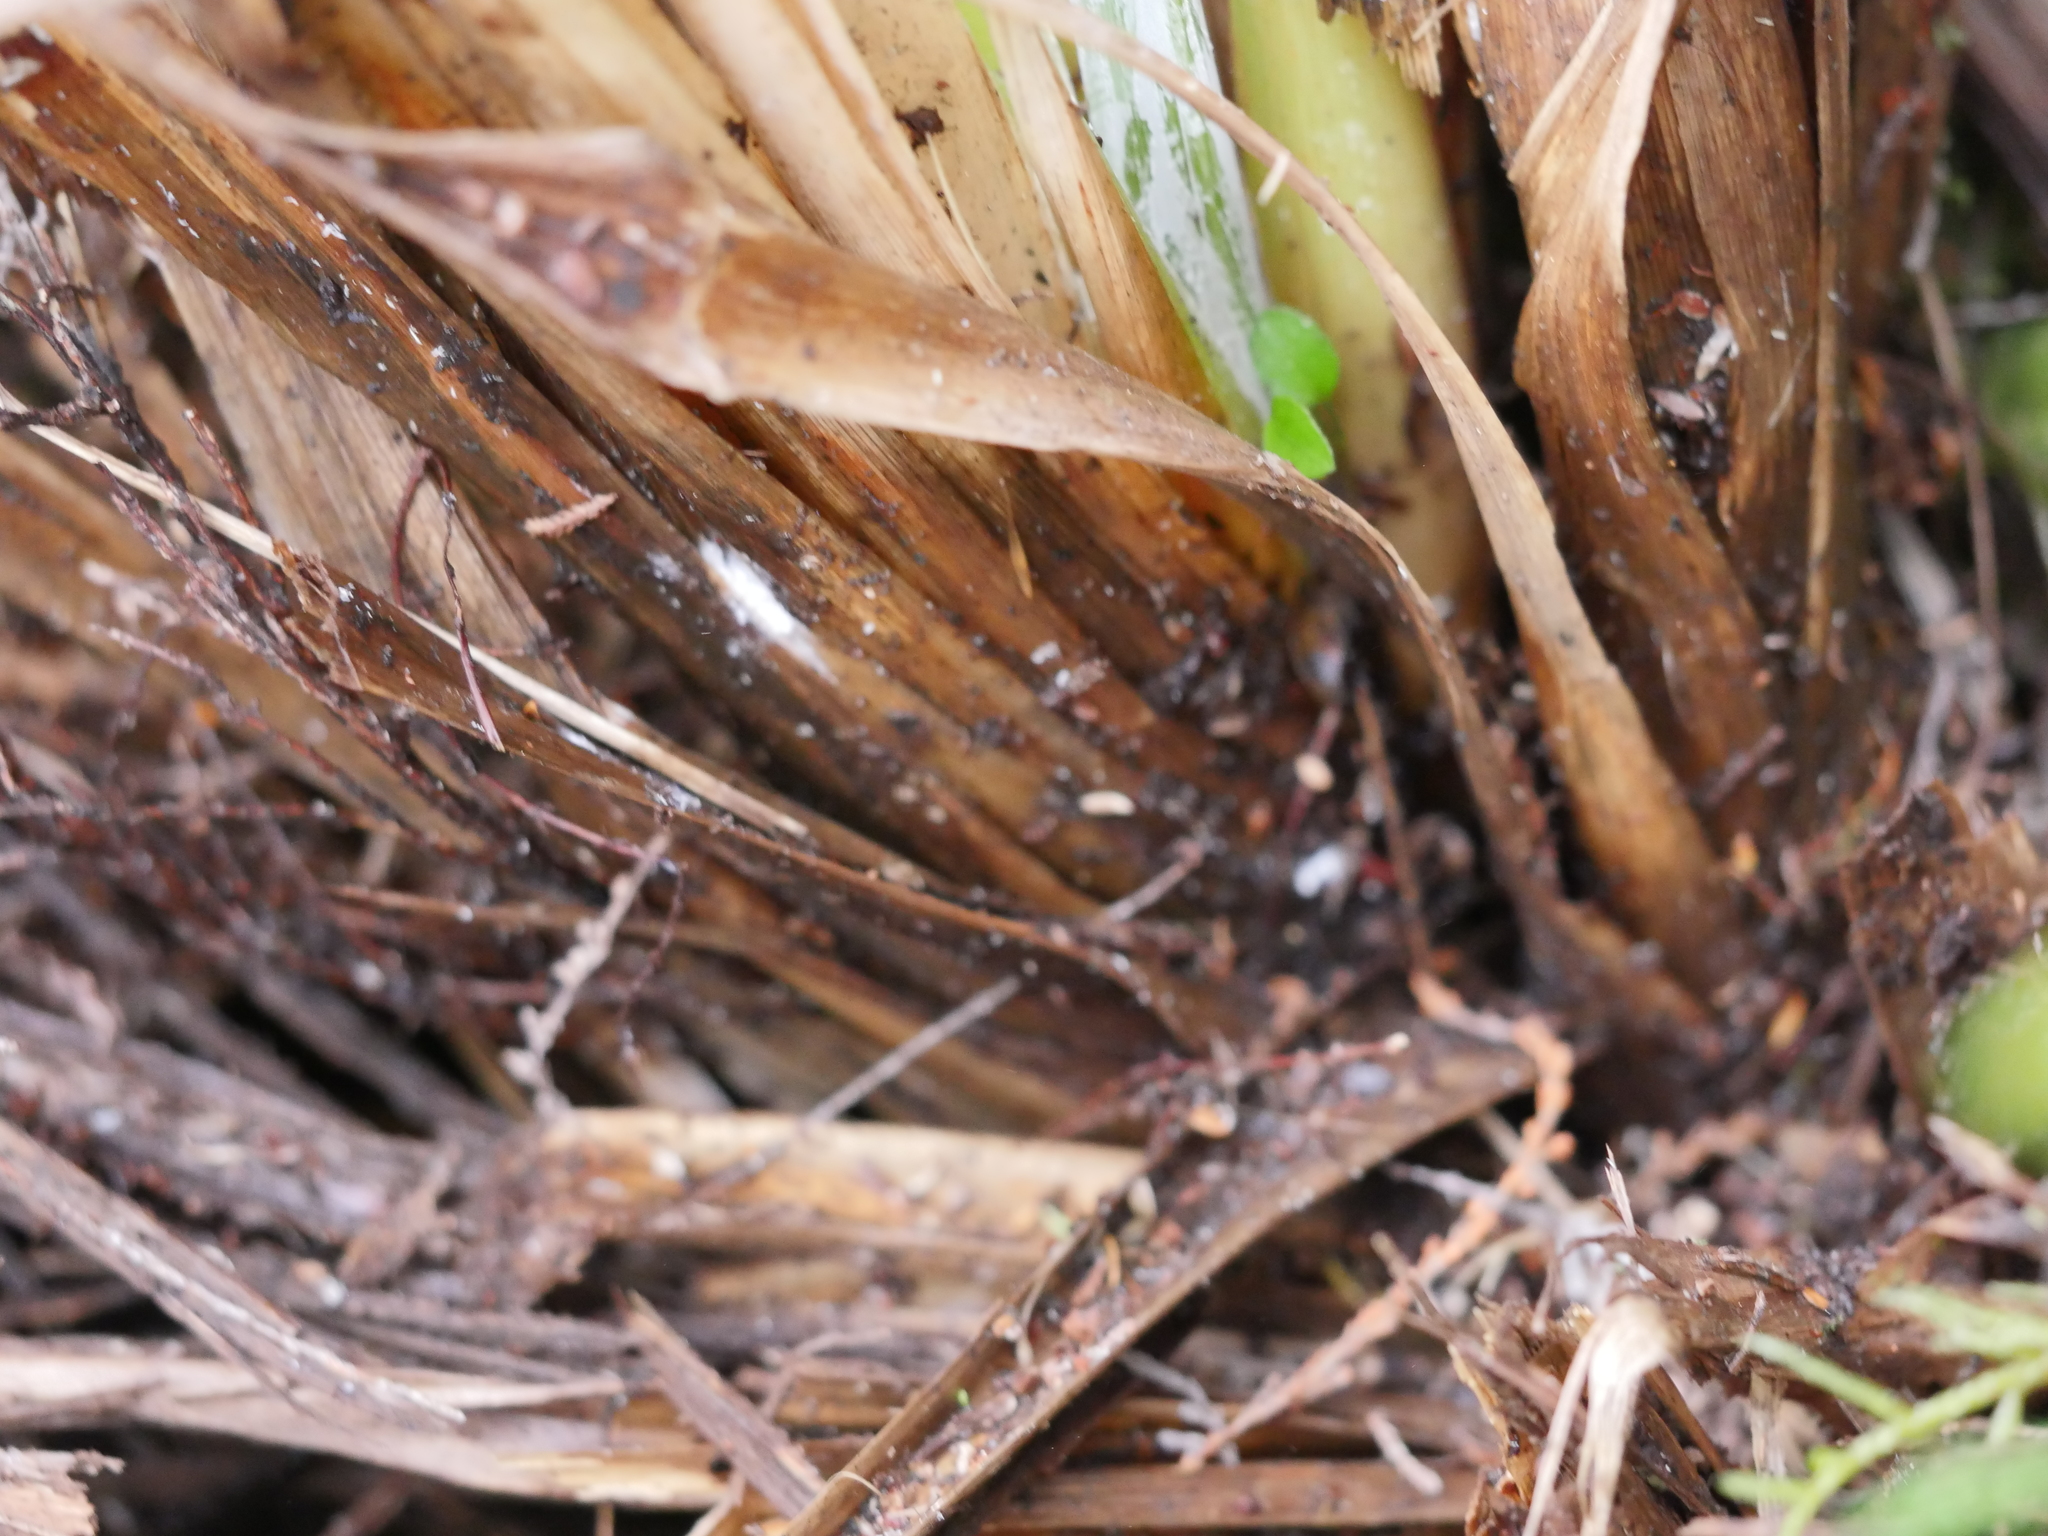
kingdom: Plantae
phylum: Tracheophyta
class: Liliopsida
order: Poales
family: Poaceae
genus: Austroderia
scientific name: Austroderia fulvida
